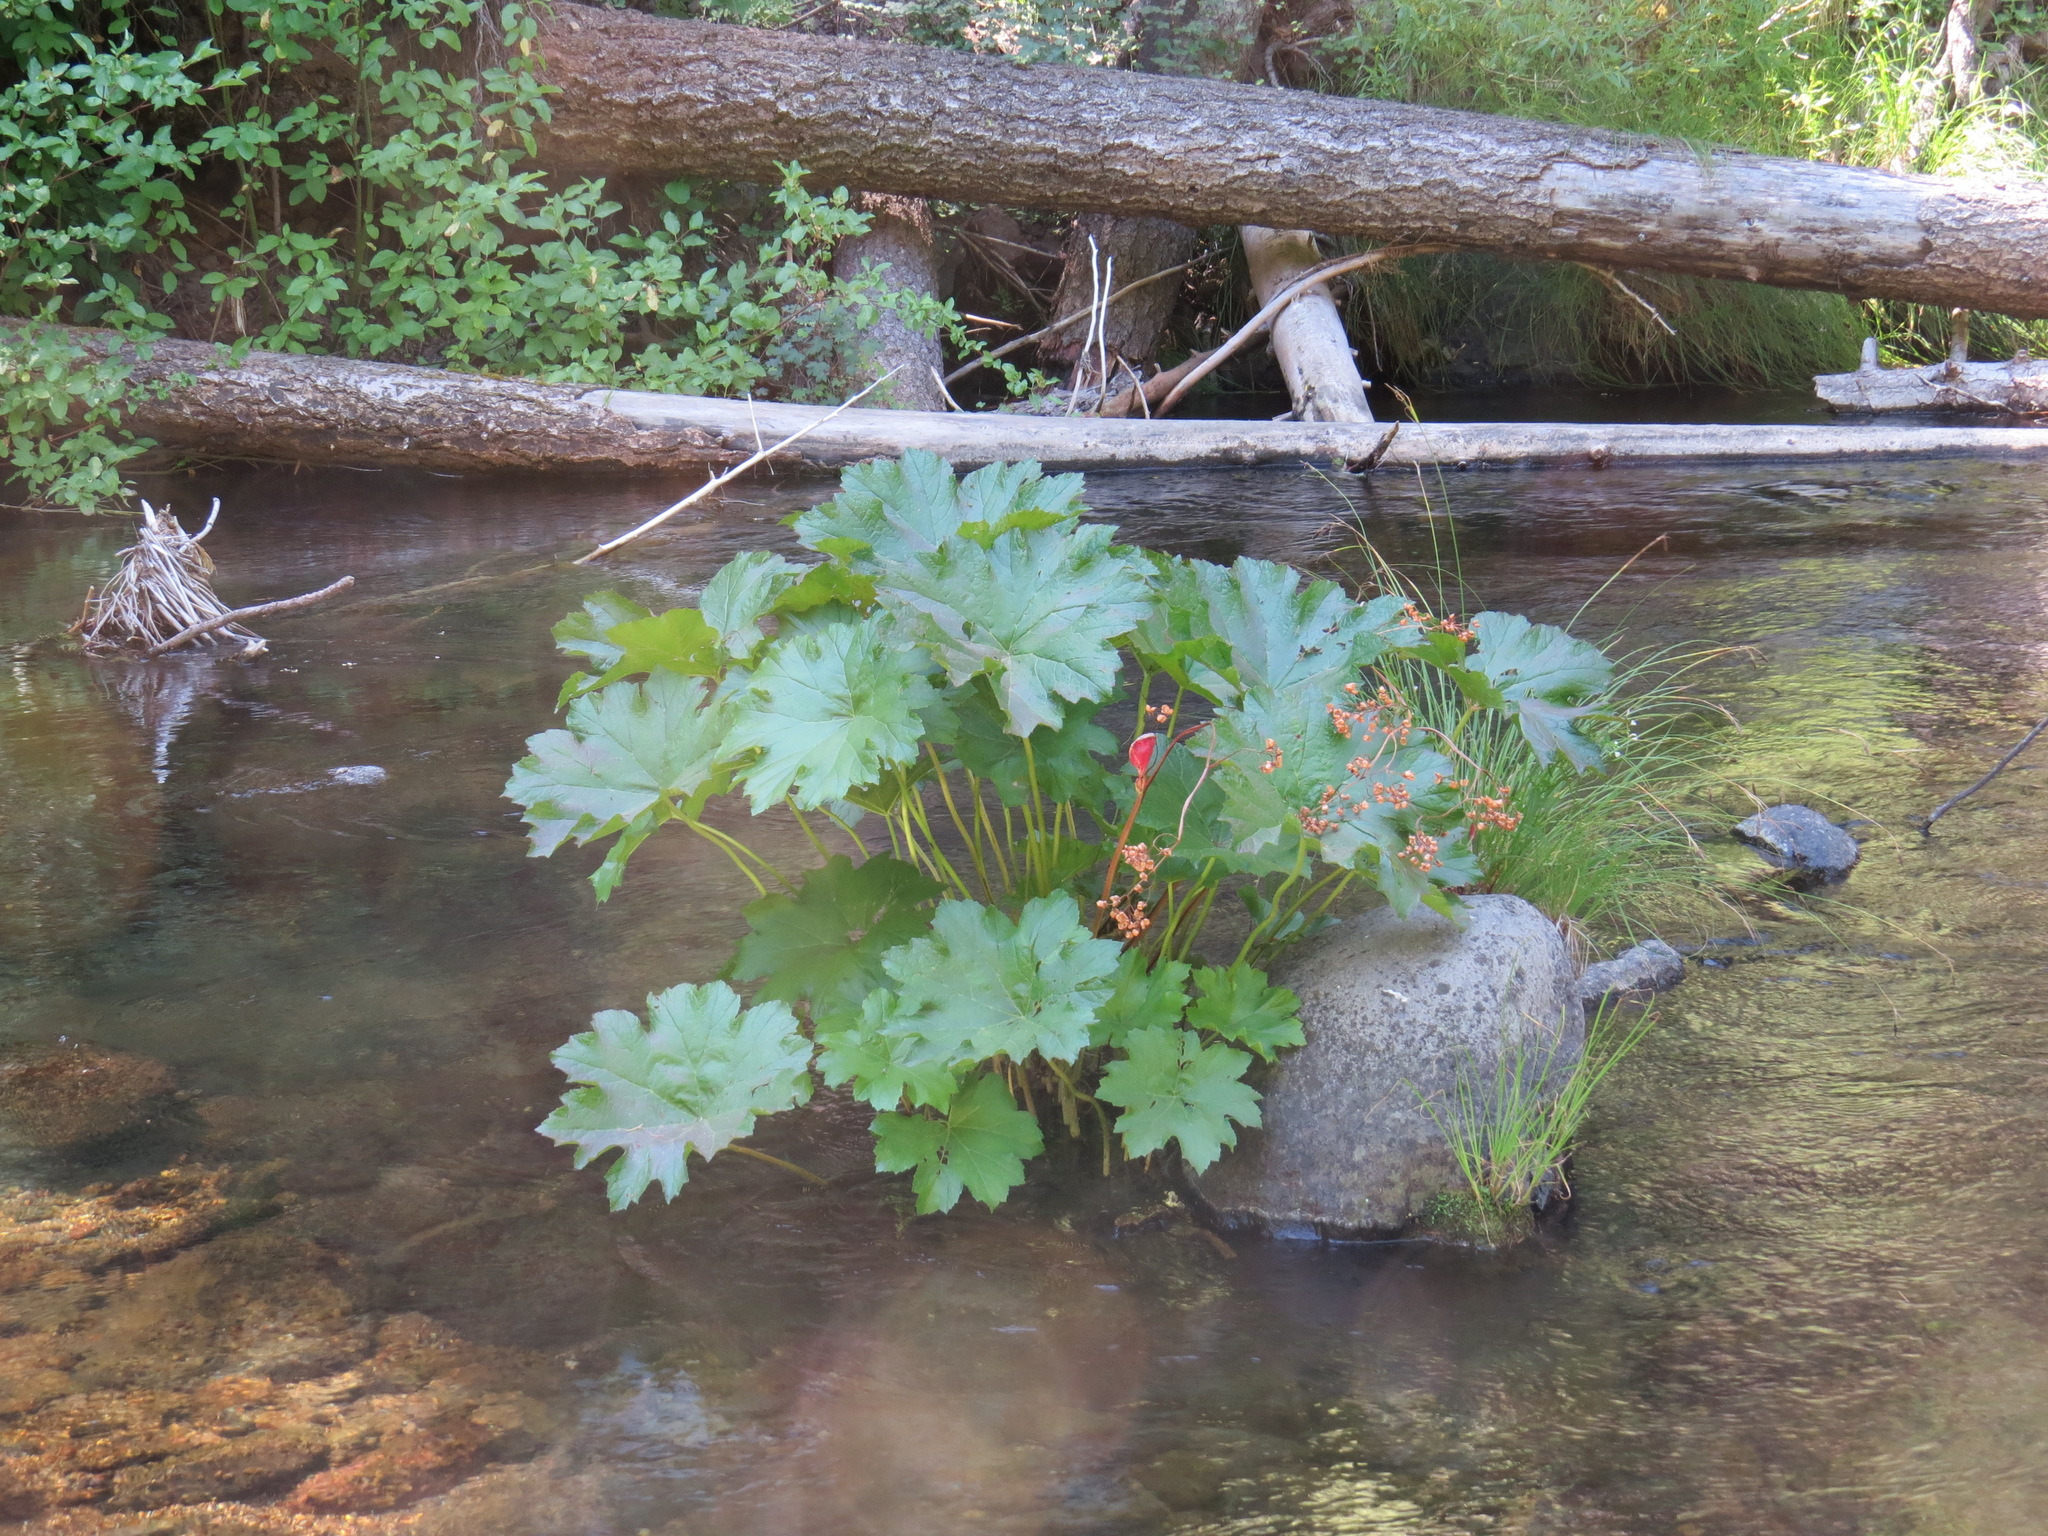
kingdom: Plantae
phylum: Tracheophyta
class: Magnoliopsida
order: Saxifragales
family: Saxifragaceae
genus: Darmera
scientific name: Darmera peltata
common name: Indian-rhubarb
